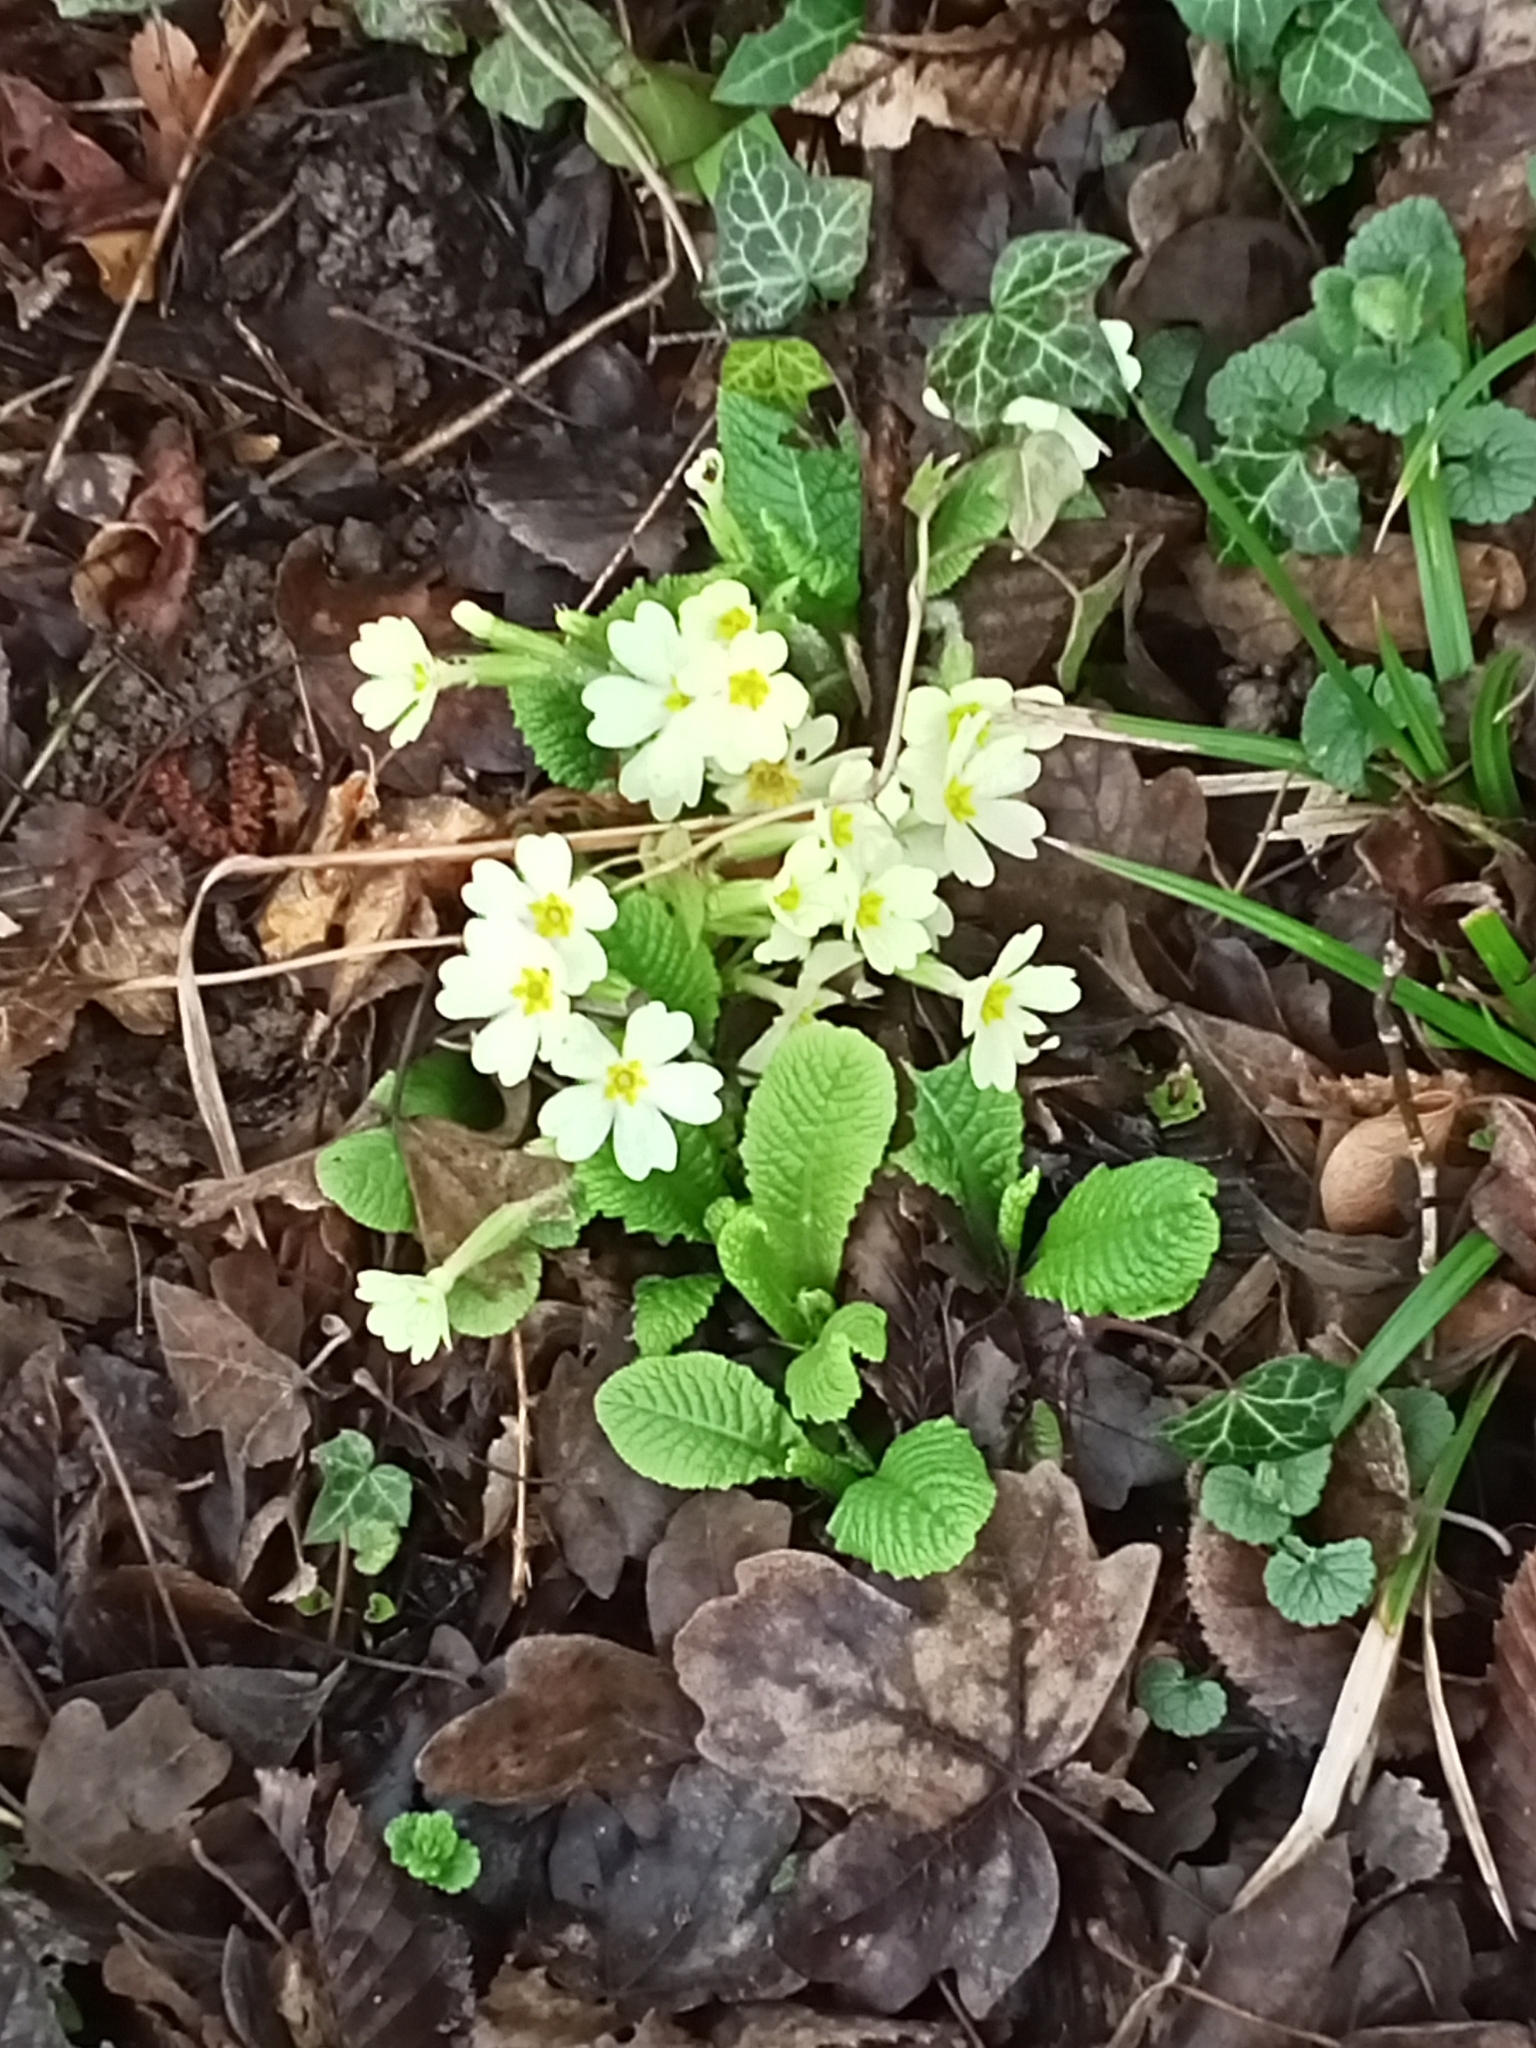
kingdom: Plantae
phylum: Tracheophyta
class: Magnoliopsida
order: Ericales
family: Primulaceae
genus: Primula
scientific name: Primula vulgaris
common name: Primrose
